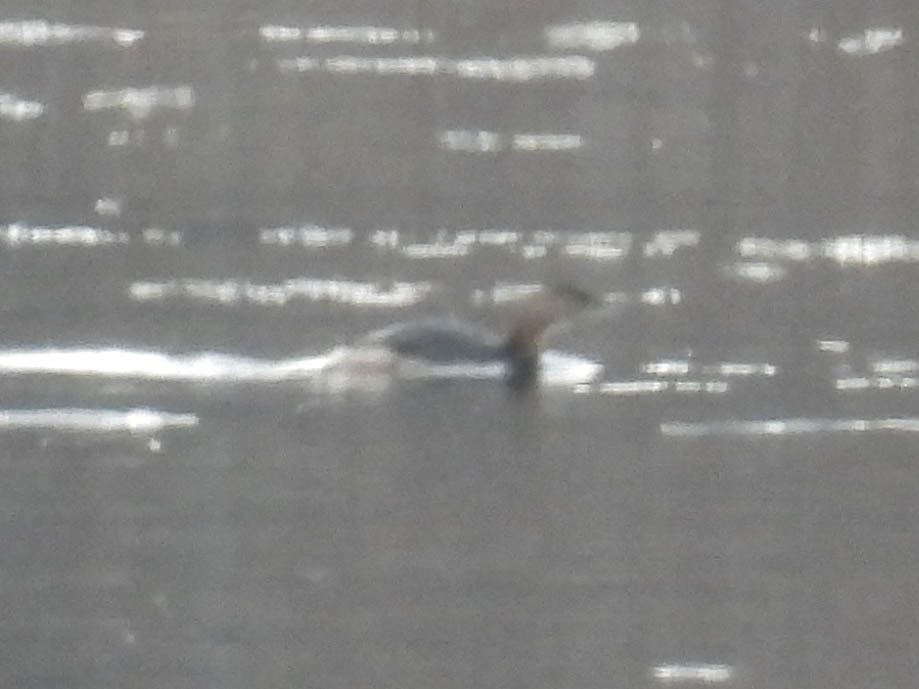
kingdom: Animalia
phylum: Chordata
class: Aves
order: Podicipediformes
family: Podicipedidae
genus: Podilymbus
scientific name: Podilymbus podiceps
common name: Pied-billed grebe
